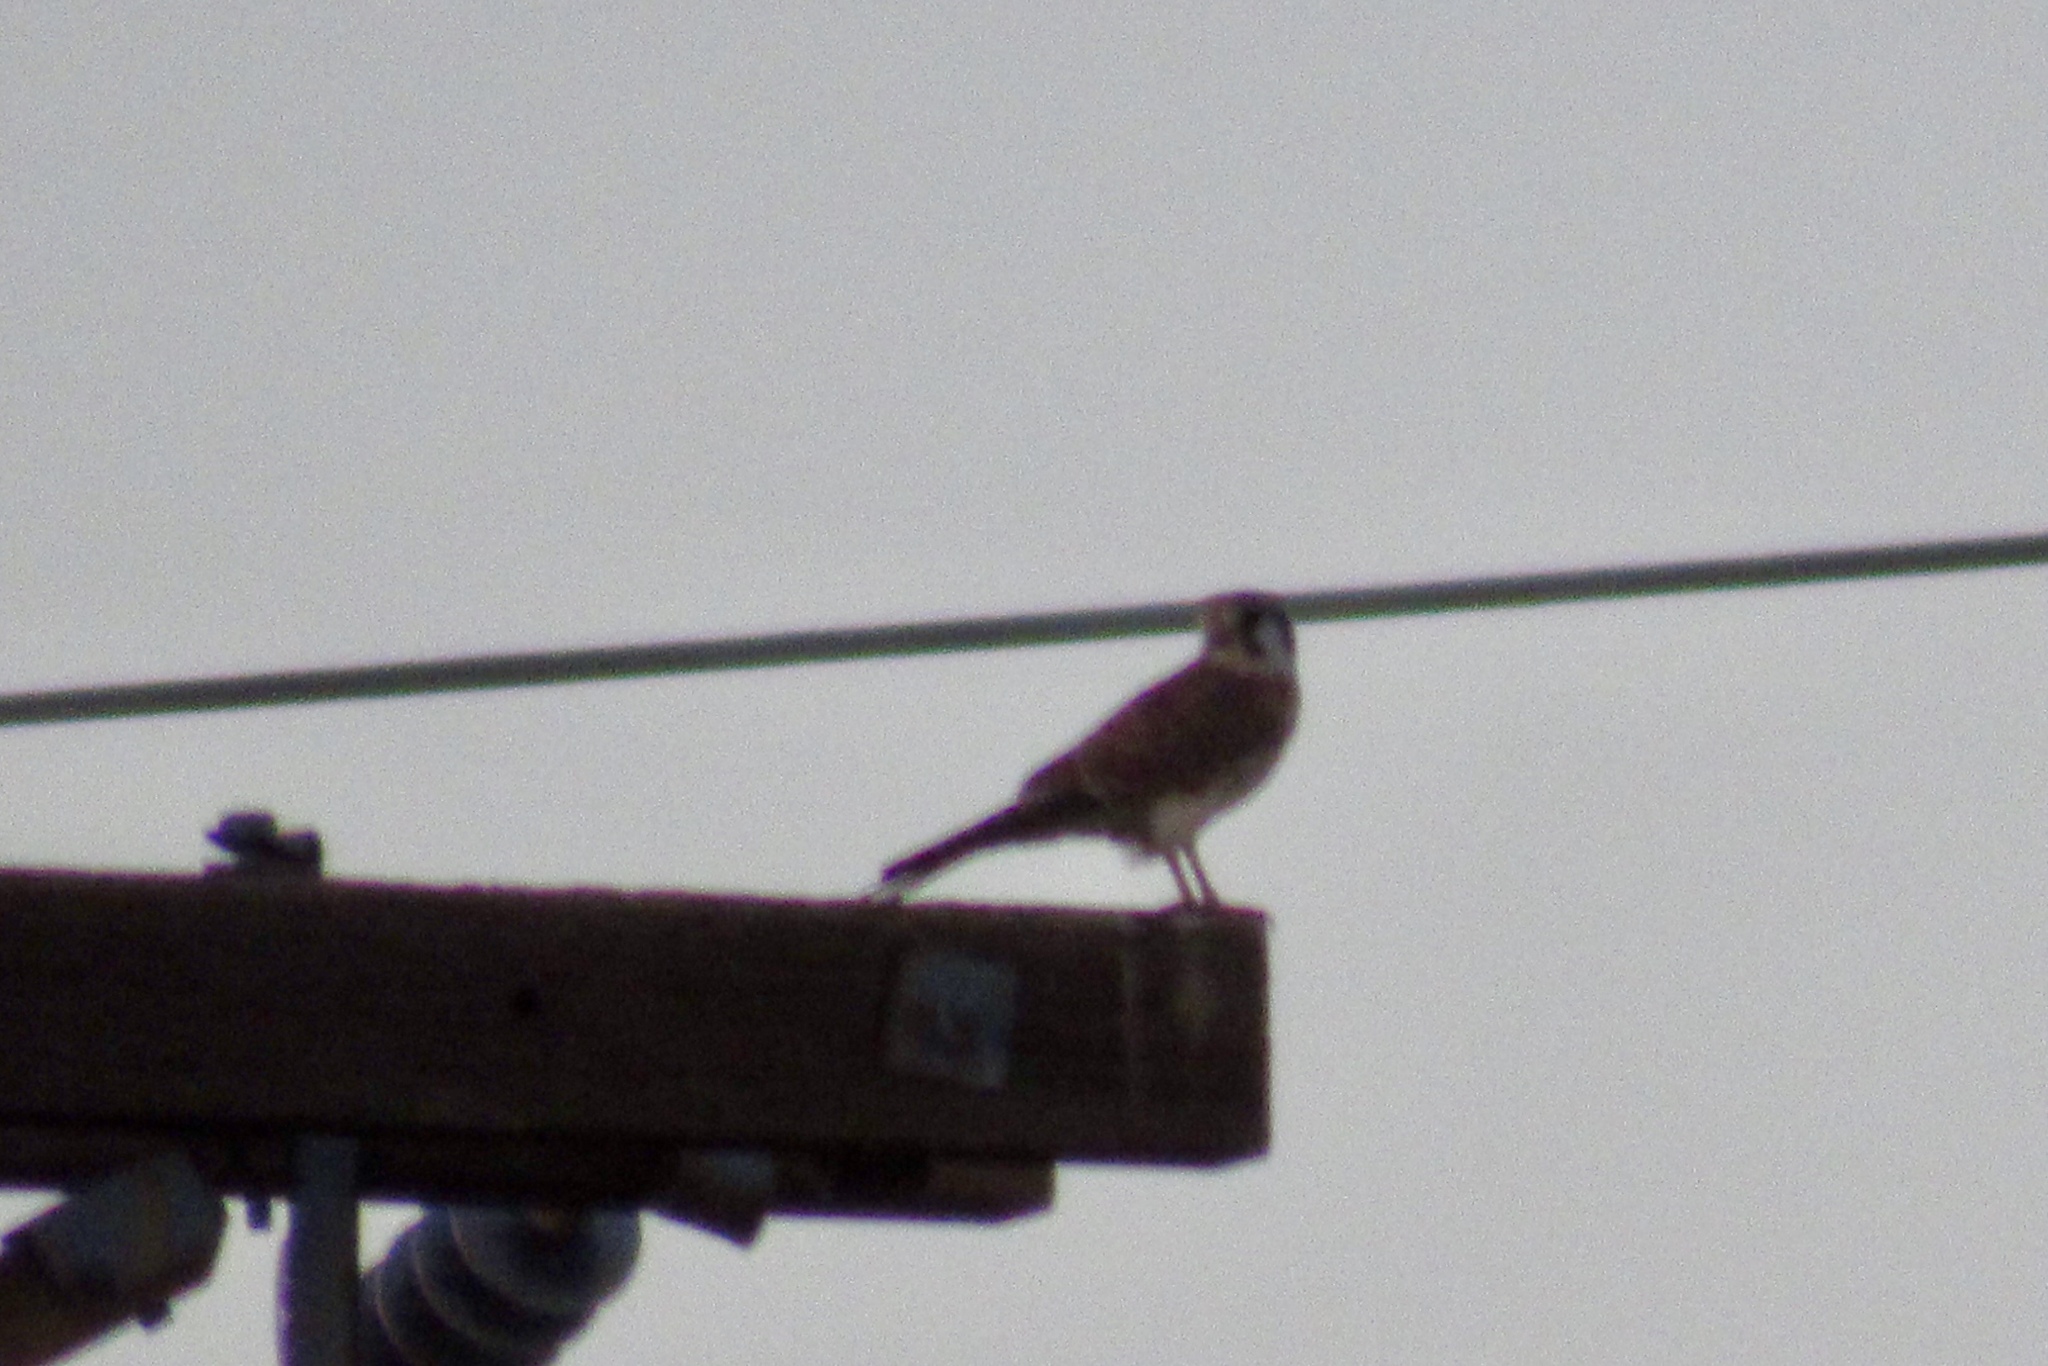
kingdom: Animalia
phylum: Chordata
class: Aves
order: Falconiformes
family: Falconidae
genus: Falco
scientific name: Falco sparverius
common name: American kestrel
